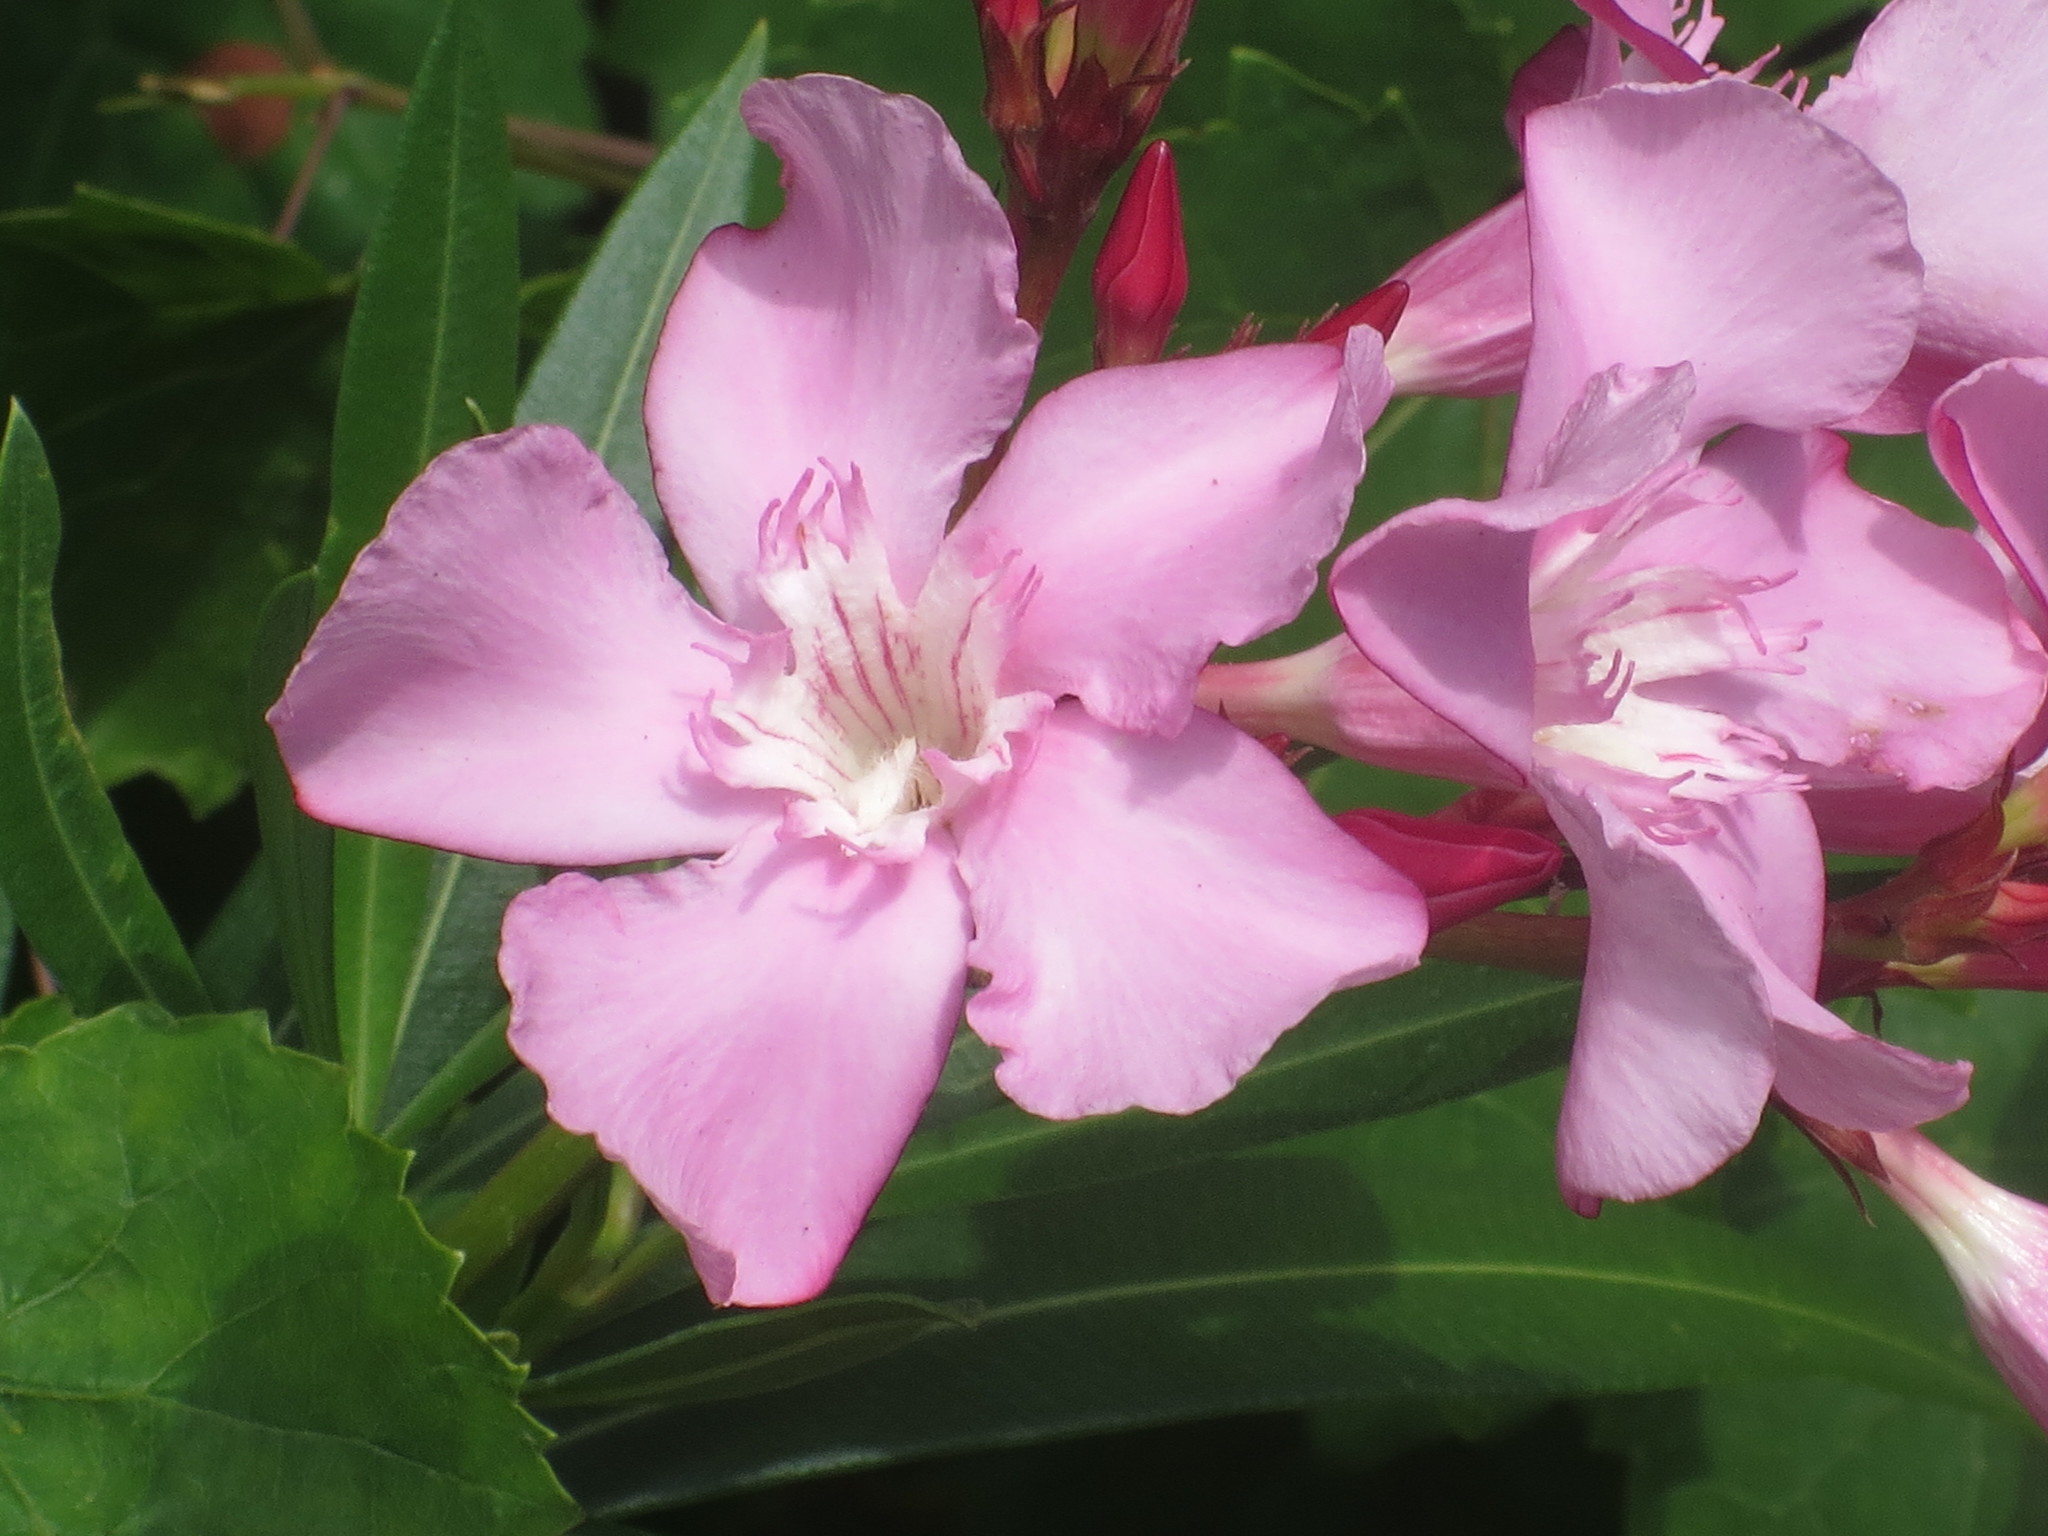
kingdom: Plantae
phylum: Tracheophyta
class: Magnoliopsida
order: Gentianales
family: Apocynaceae
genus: Nerium
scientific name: Nerium oleander
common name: Oleander
